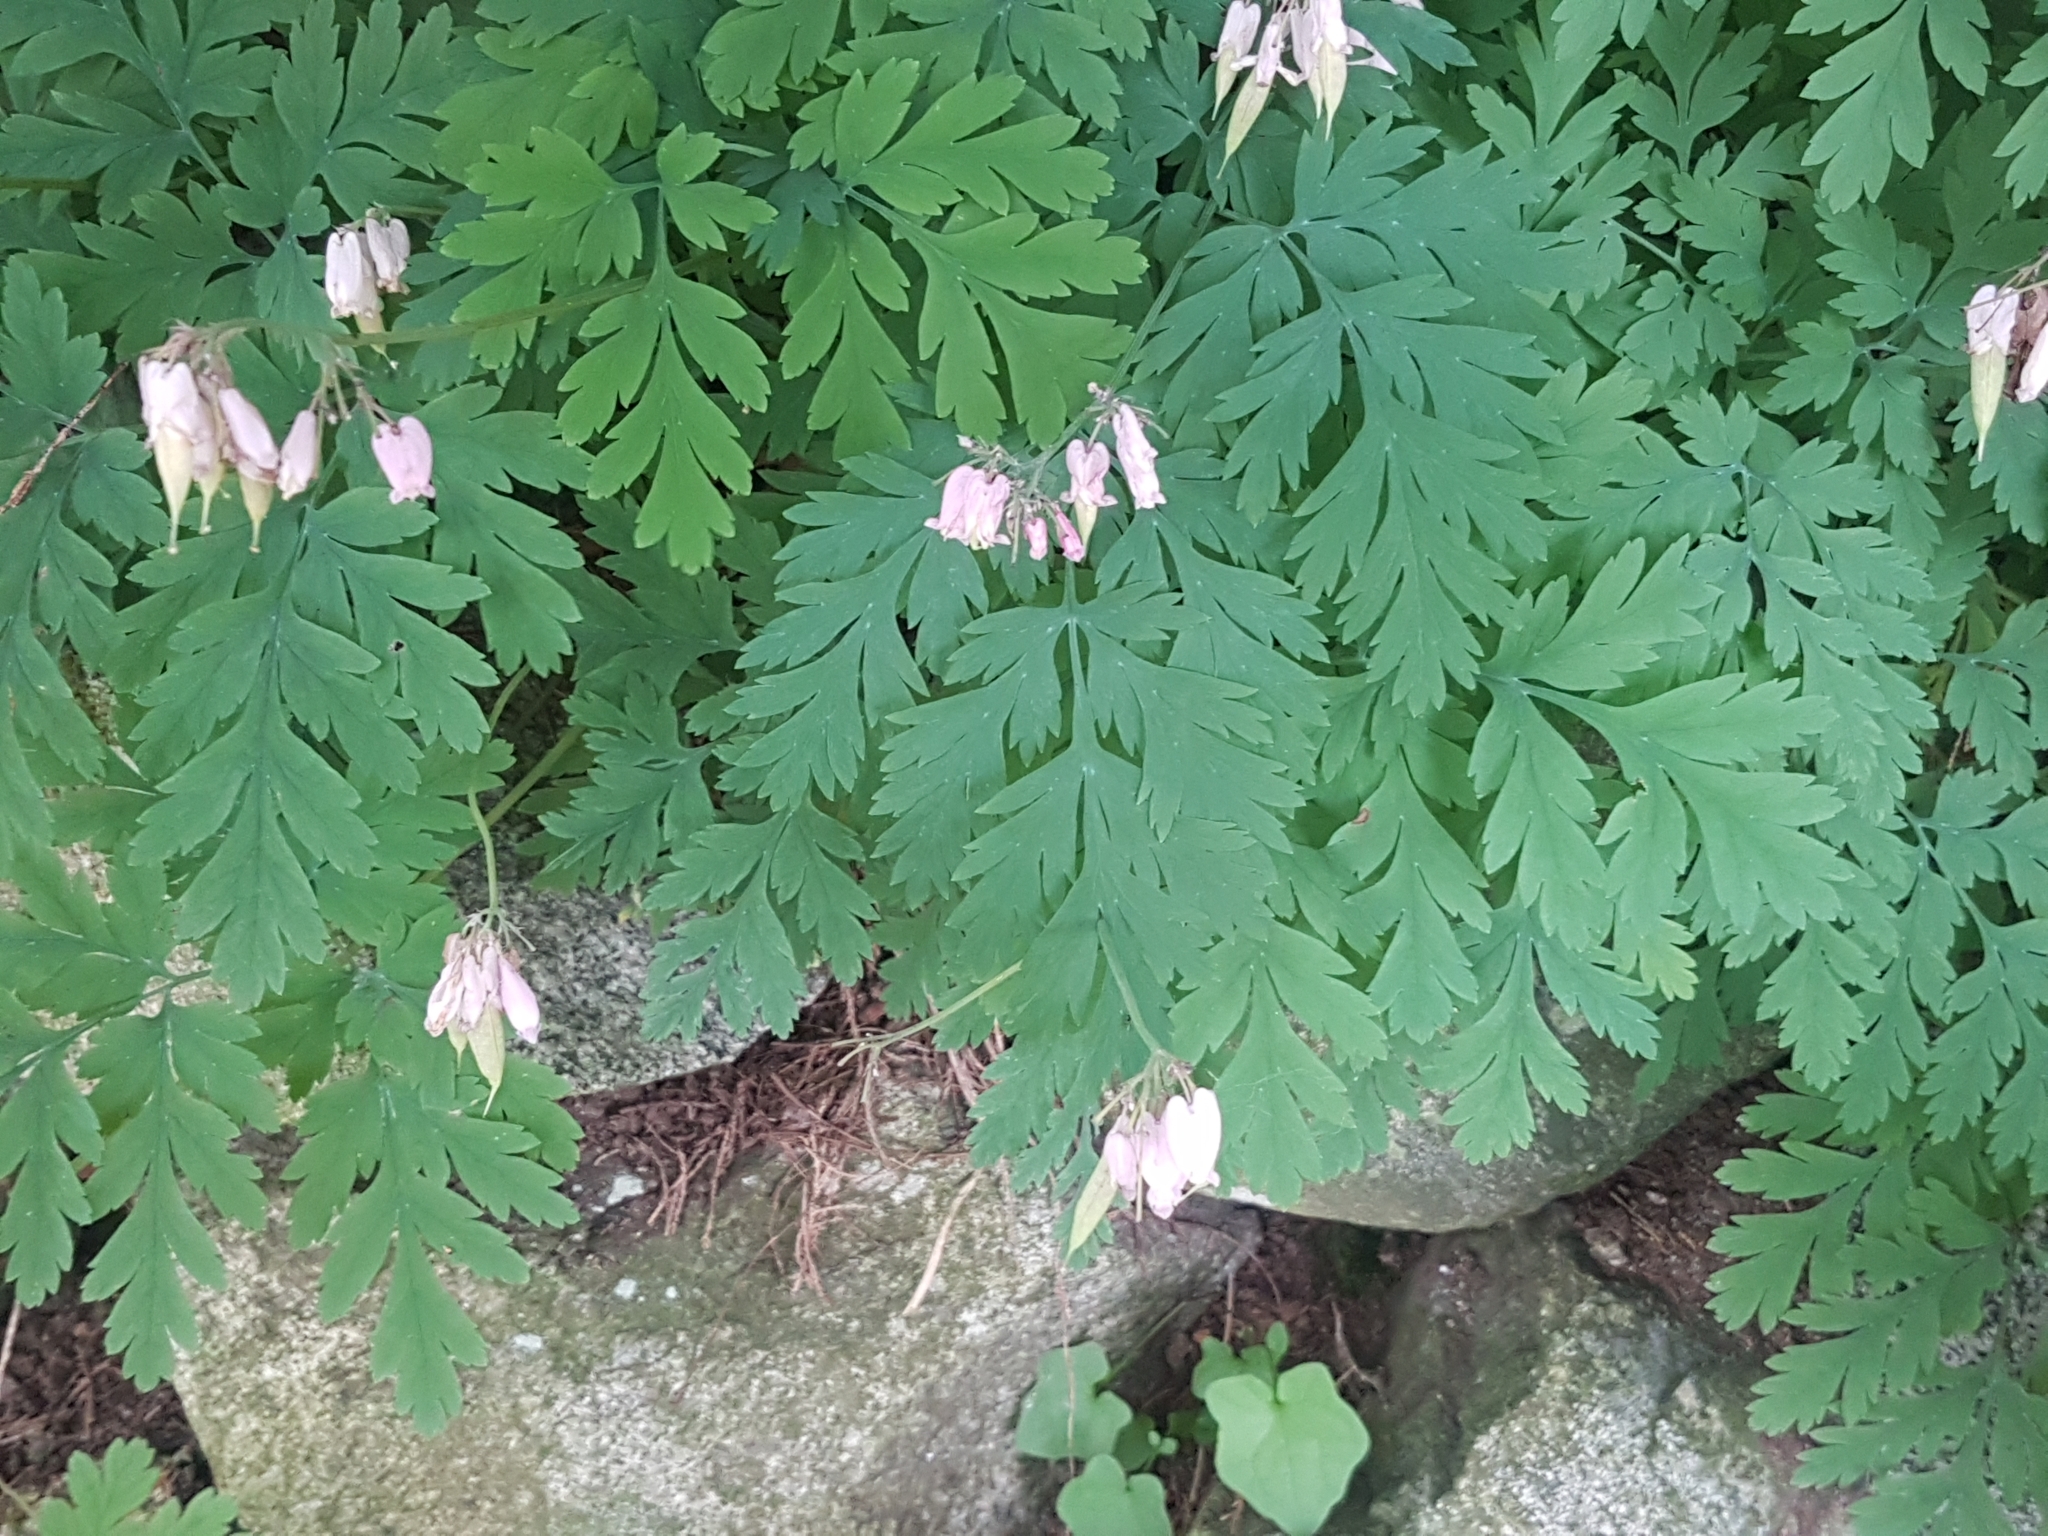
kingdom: Plantae
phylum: Tracheophyta
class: Magnoliopsida
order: Ranunculales
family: Papaveraceae
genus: Dicentra
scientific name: Dicentra formosa
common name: Bleeding-heart
